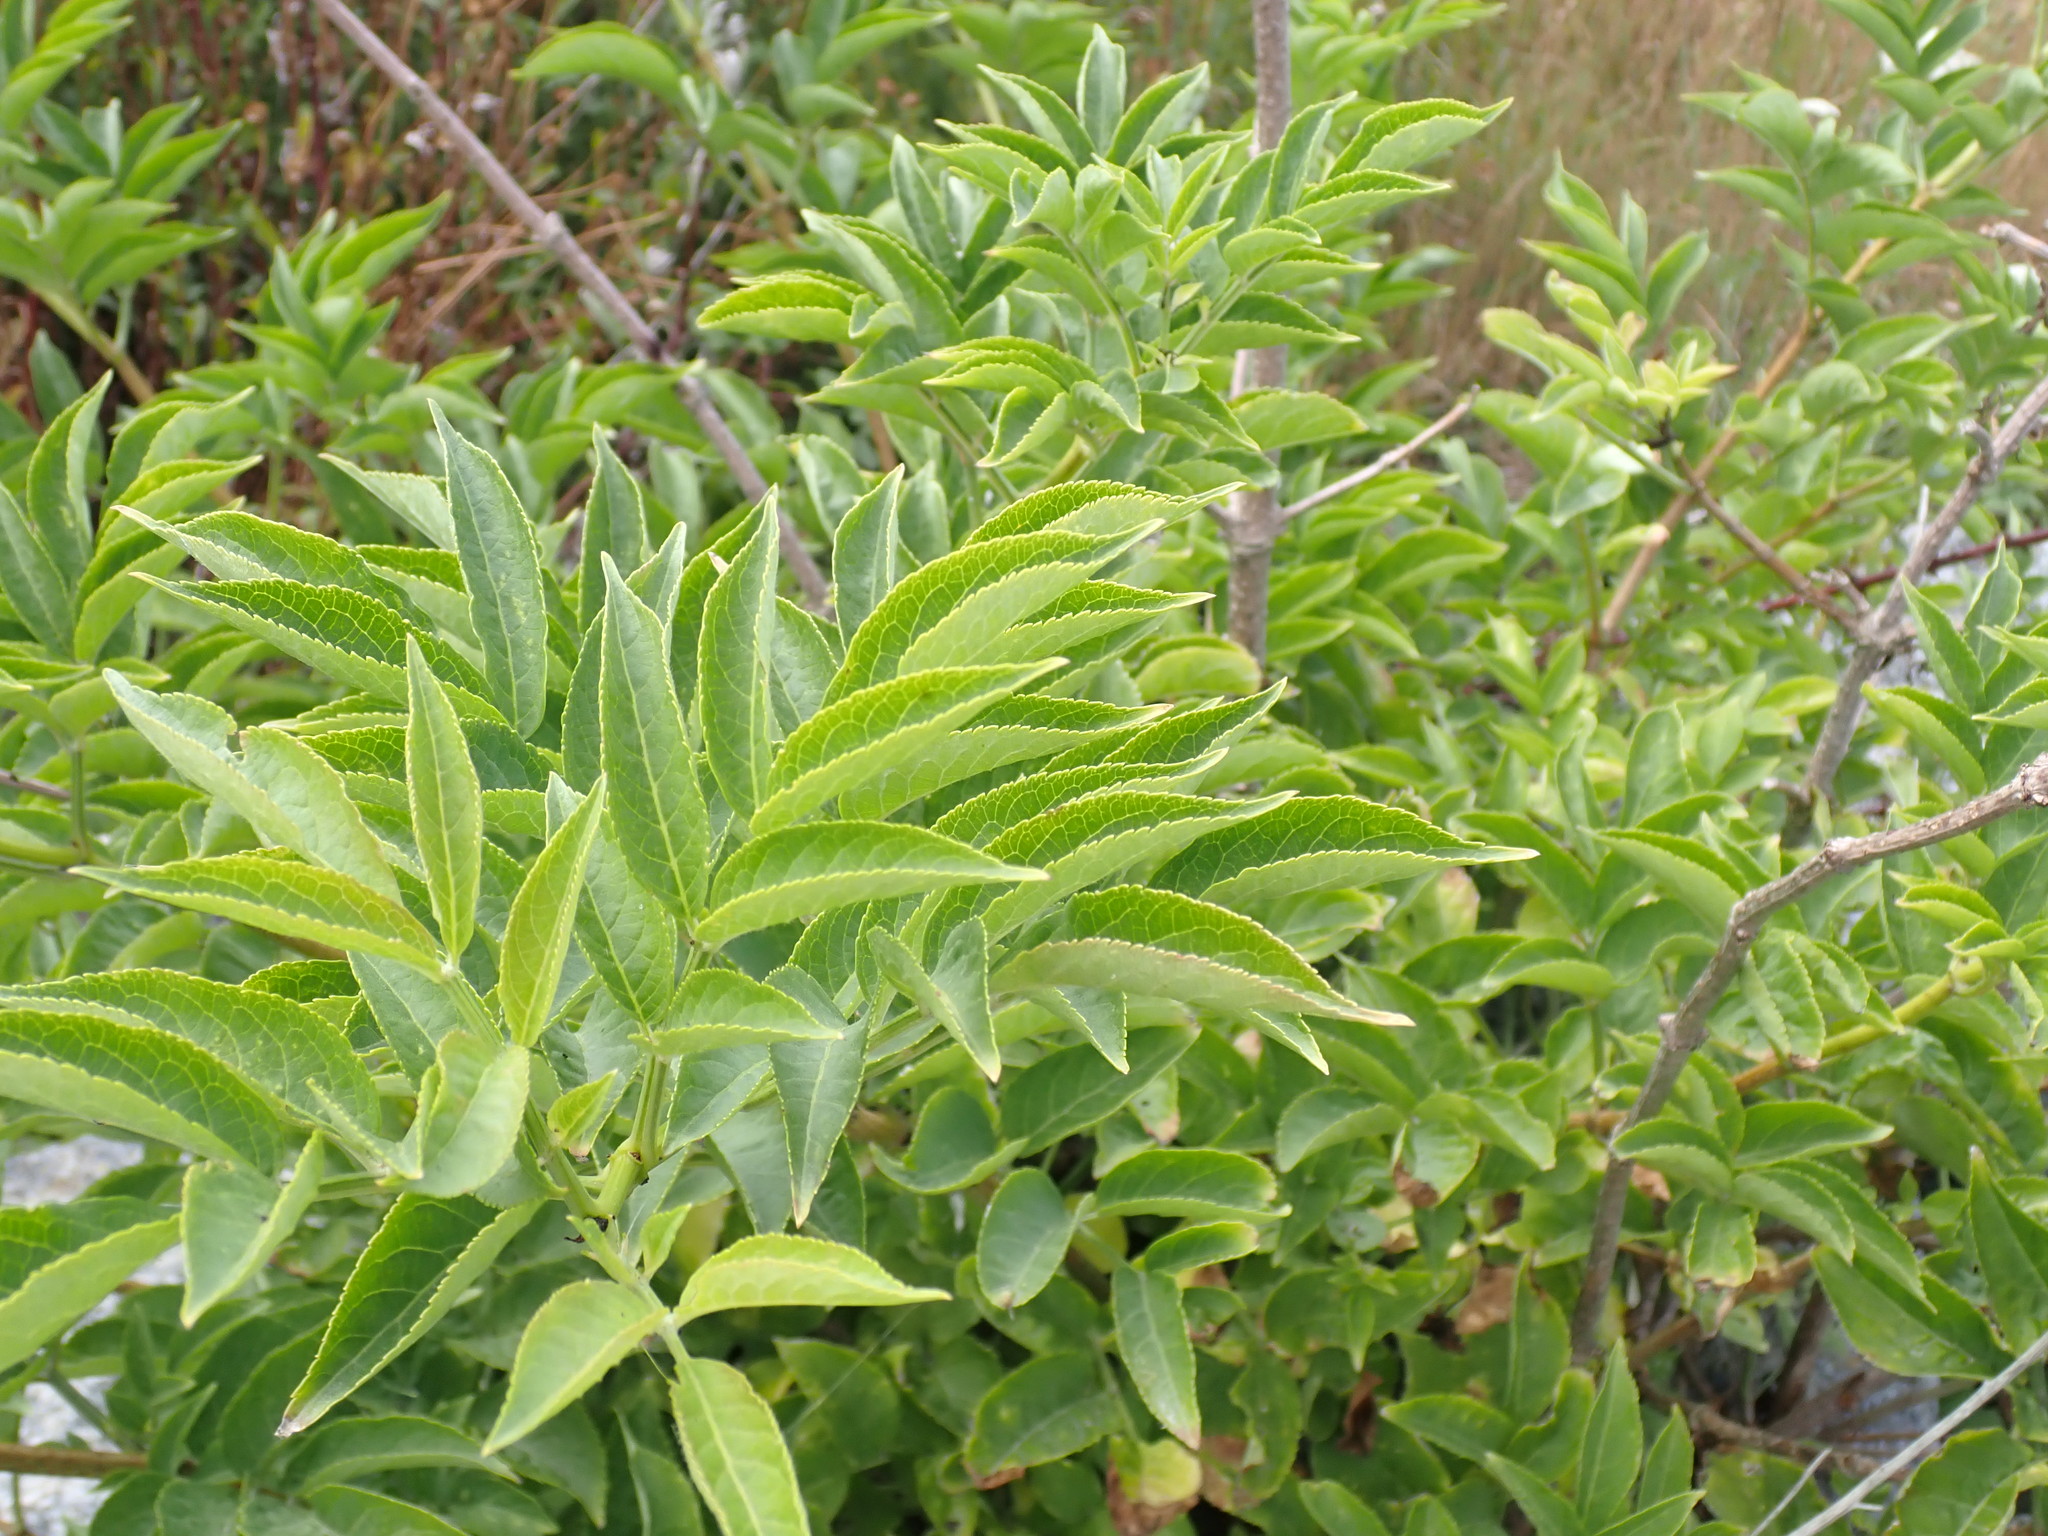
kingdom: Plantae
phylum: Tracheophyta
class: Magnoliopsida
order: Dipsacales
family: Viburnaceae
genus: Sambucus
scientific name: Sambucus nigra
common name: Elder
